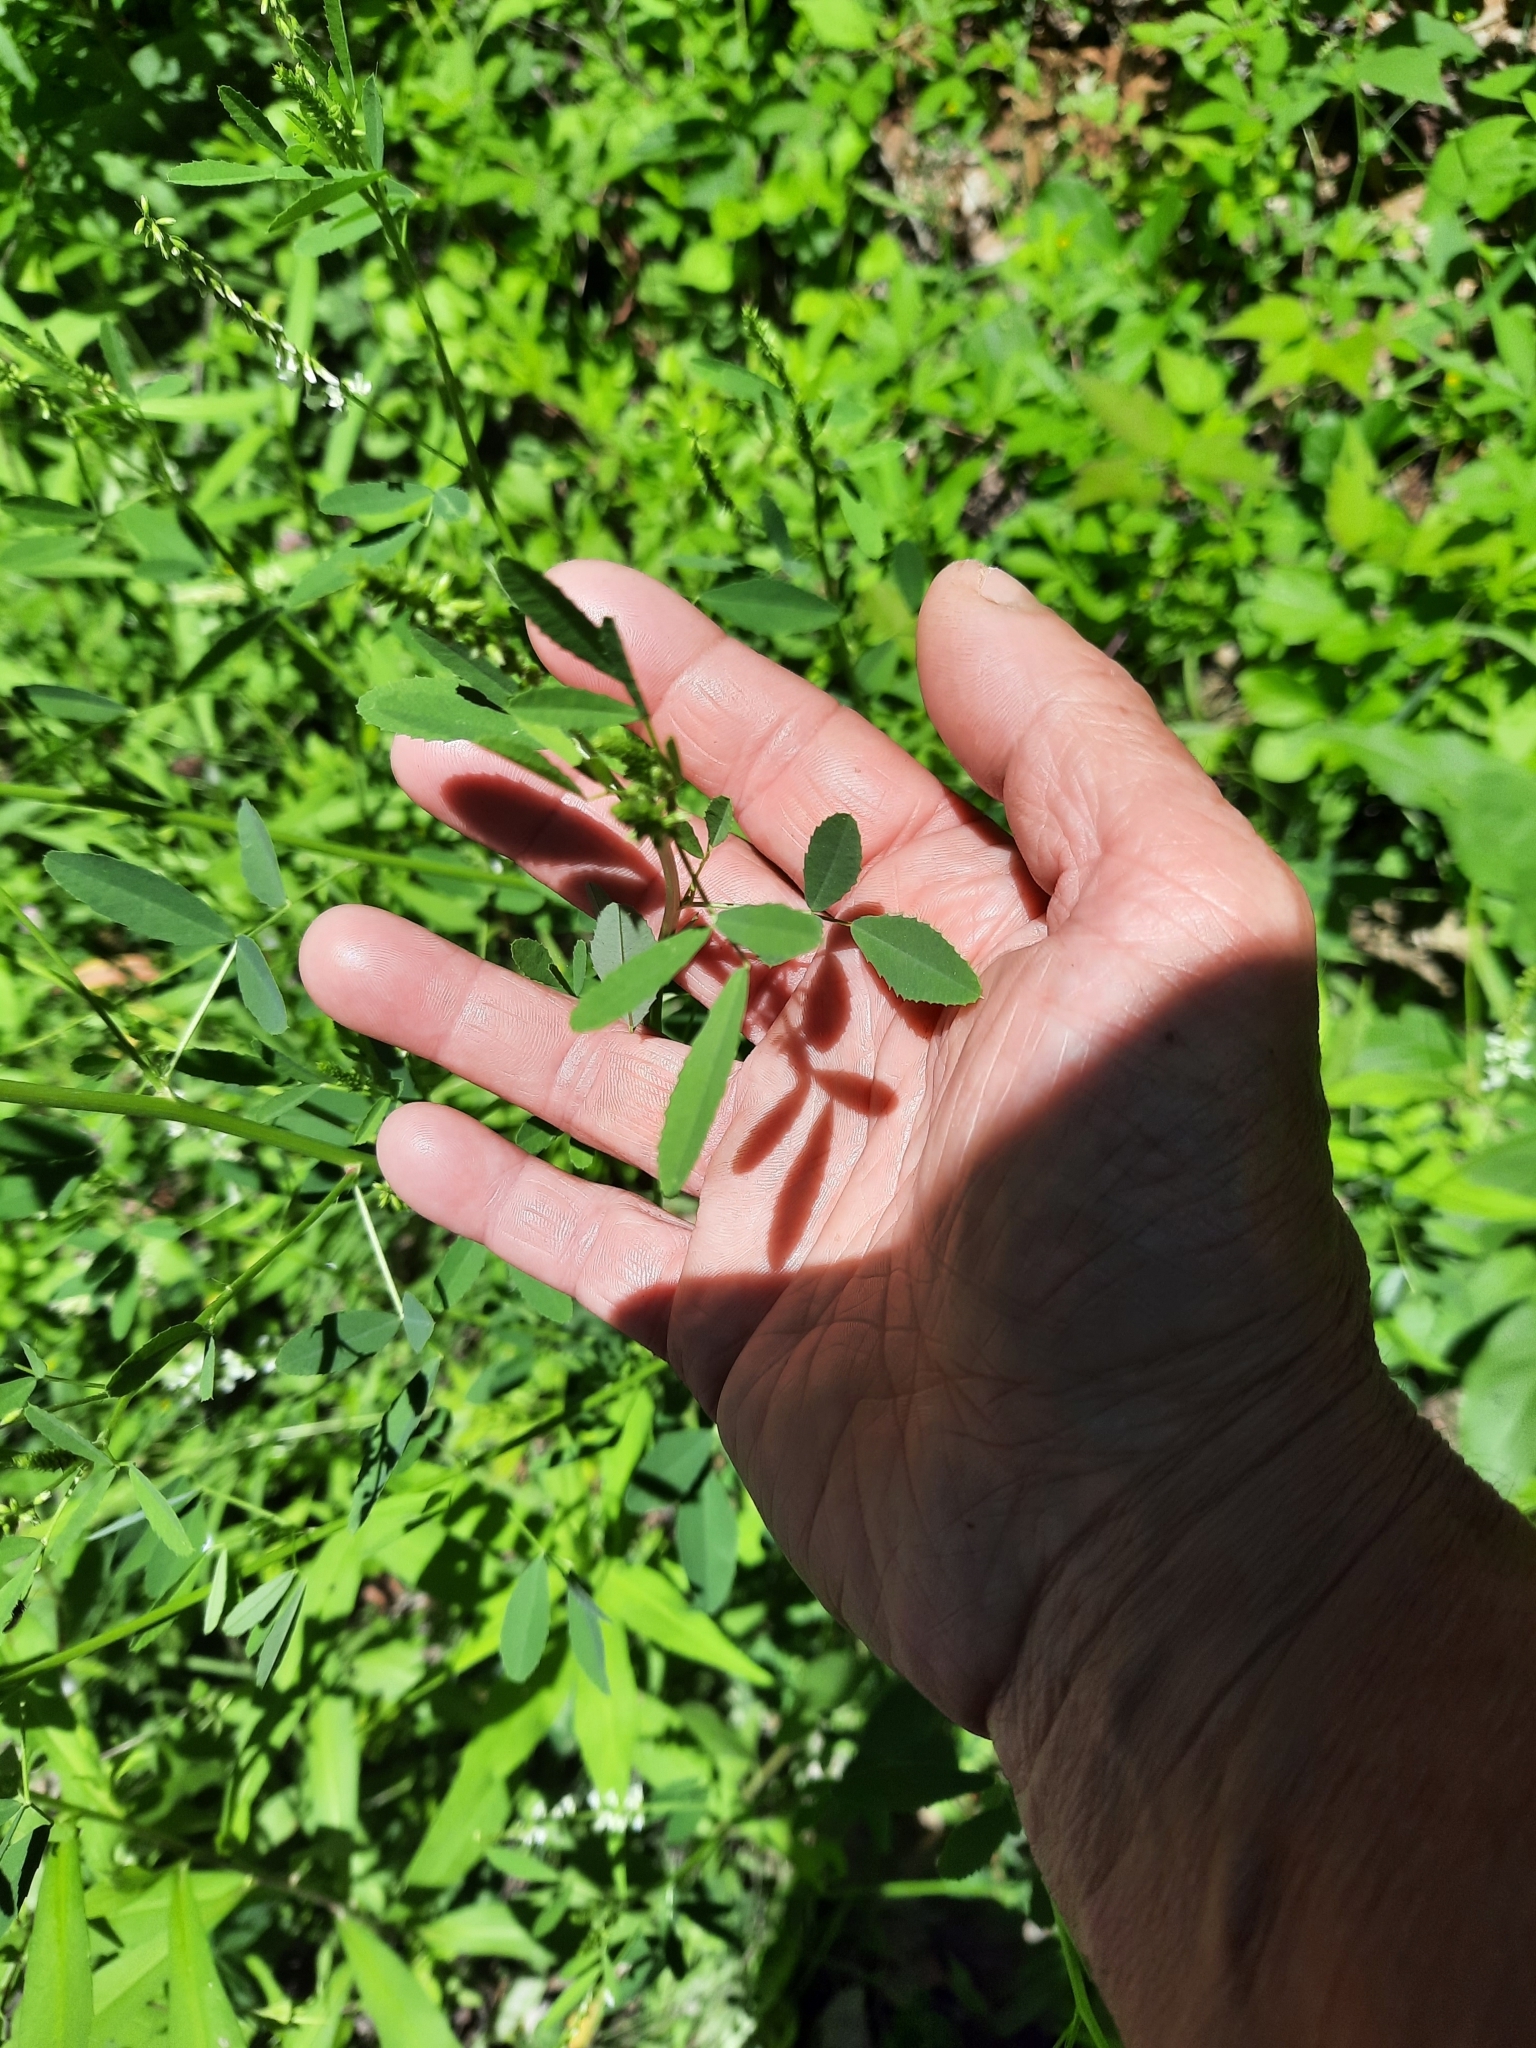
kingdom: Plantae
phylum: Tracheophyta
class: Magnoliopsida
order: Fabales
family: Fabaceae
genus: Melilotus
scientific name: Melilotus albus
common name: White melilot
